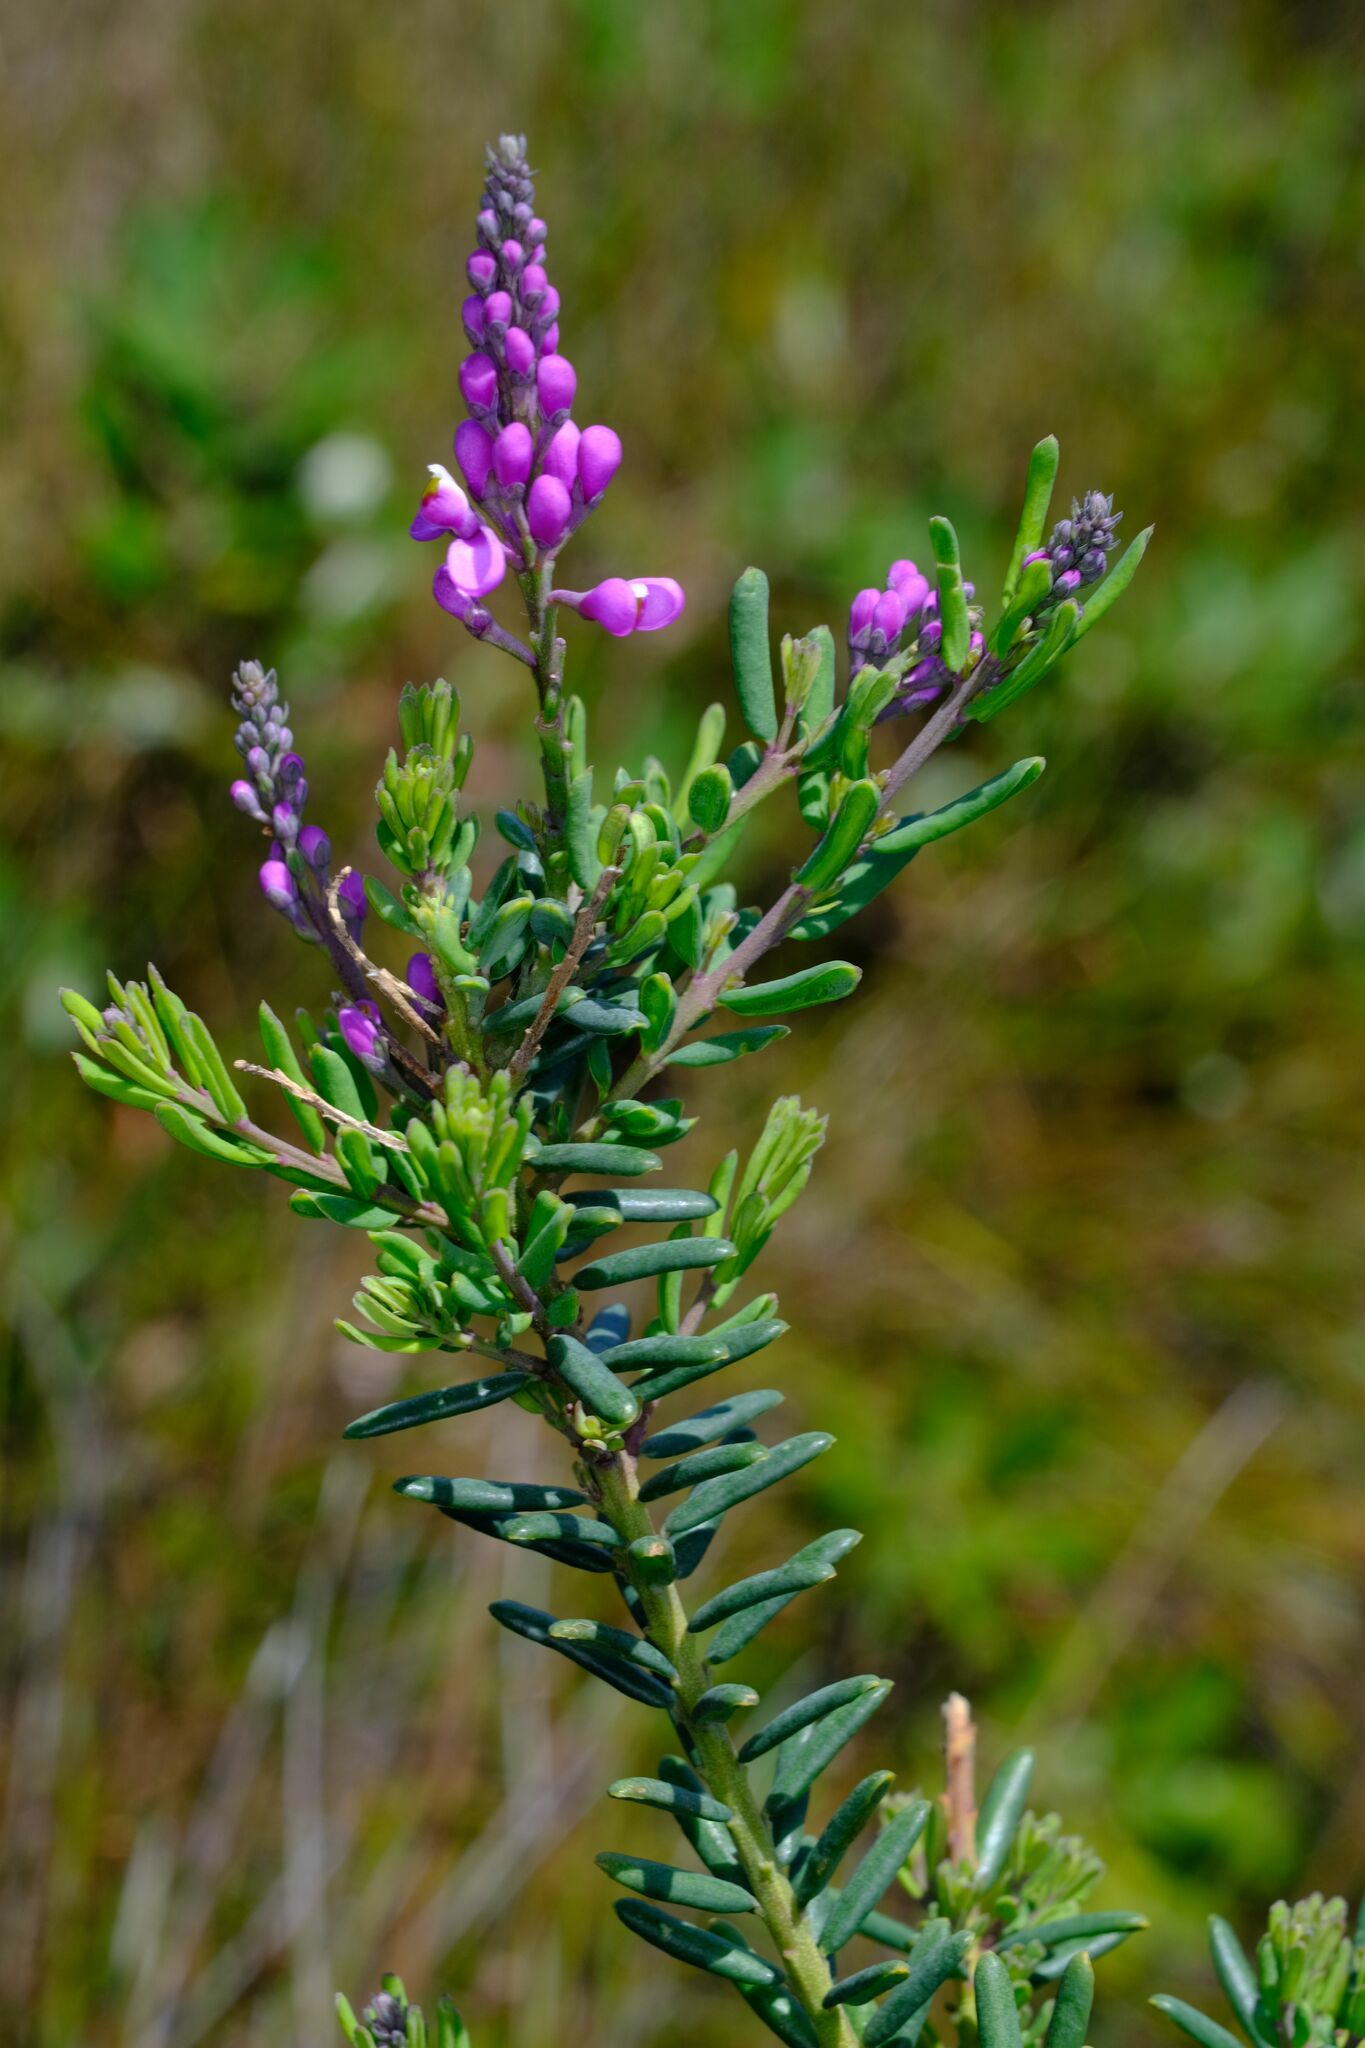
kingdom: Plantae
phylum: Tracheophyta
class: Magnoliopsida
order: Fabales
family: Polygalaceae
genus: Comesperma
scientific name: Comesperma ericinum
